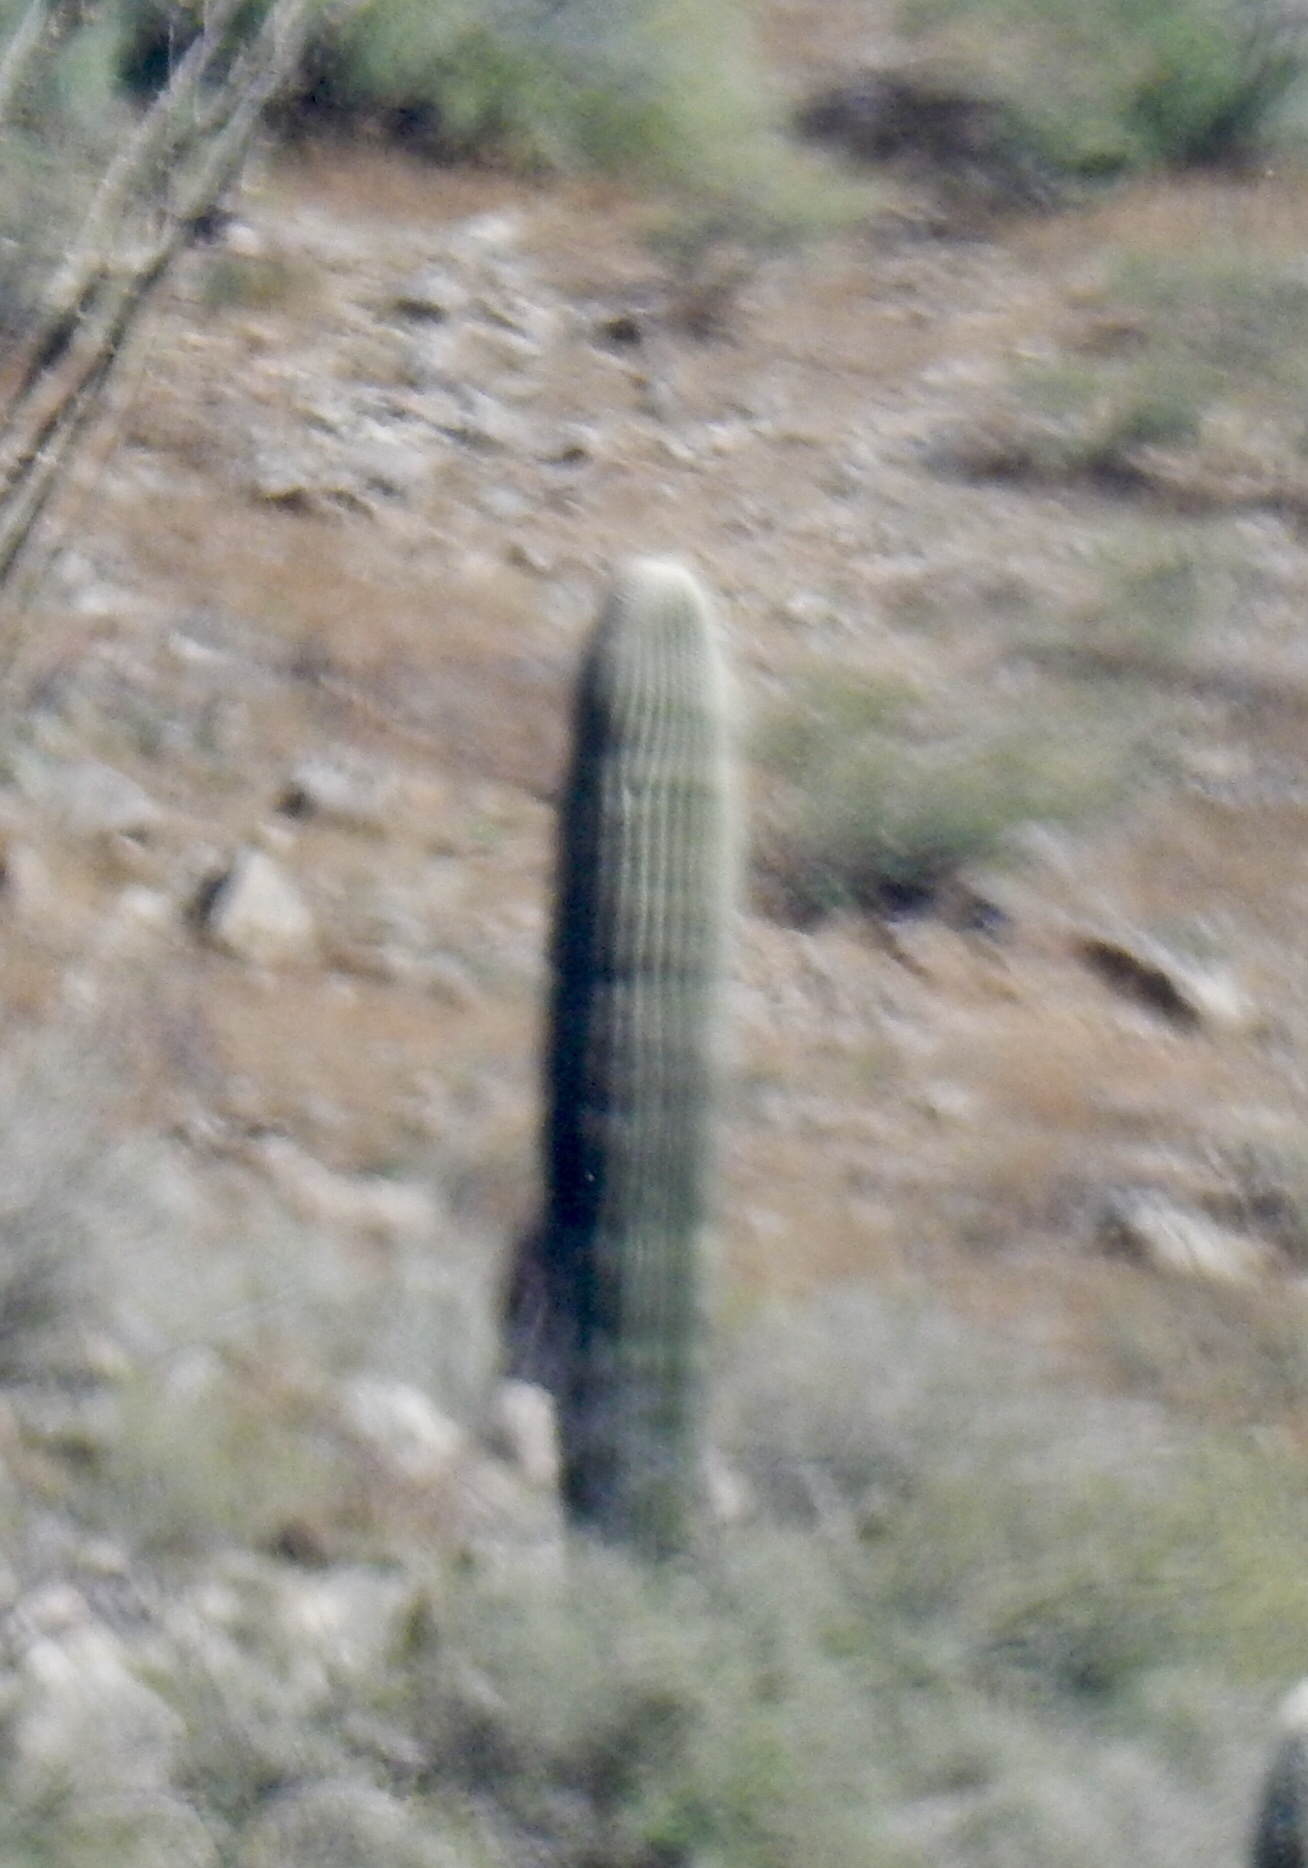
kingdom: Plantae
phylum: Tracheophyta
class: Magnoliopsida
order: Caryophyllales
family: Cactaceae
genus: Carnegiea
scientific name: Carnegiea gigantea
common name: Saguaro
